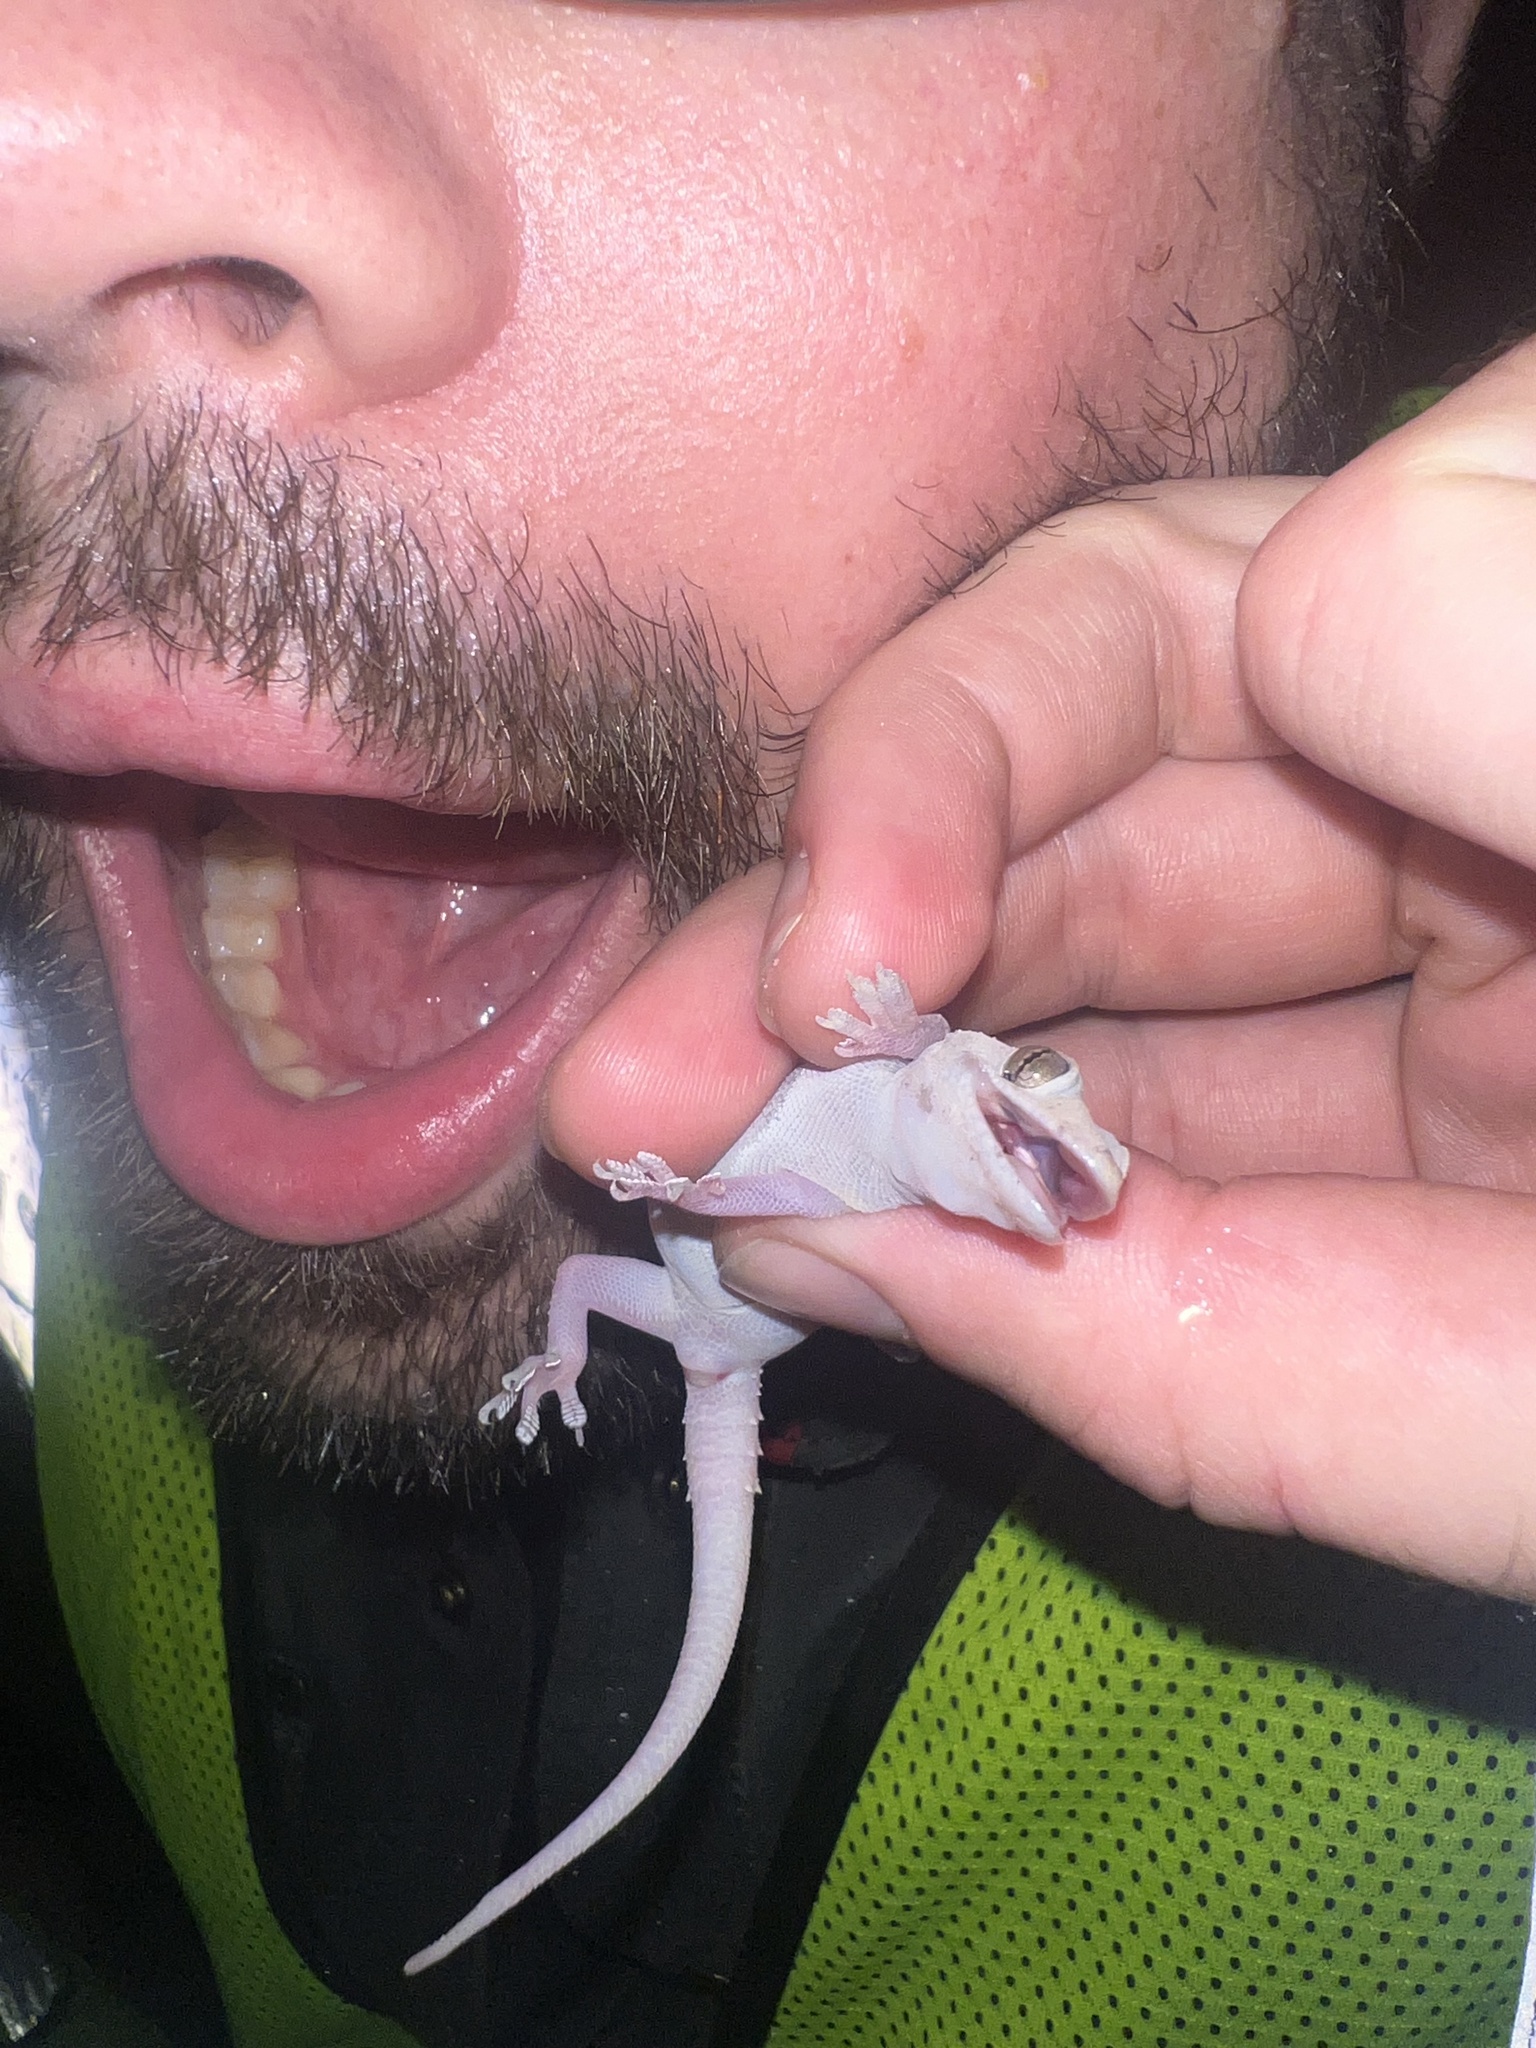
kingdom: Animalia
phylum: Chordata
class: Squamata
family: Gekkonidae
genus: Hemidactylus
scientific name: Hemidactylus turcicus
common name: Turkish gecko
